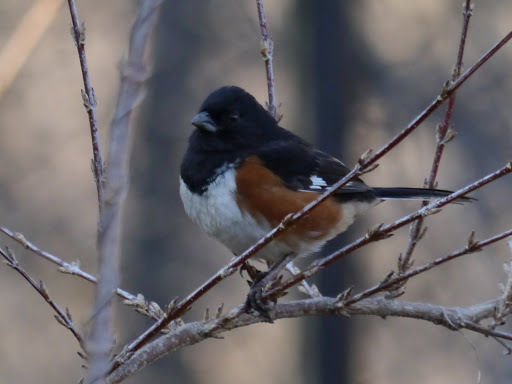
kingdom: Animalia
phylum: Chordata
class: Aves
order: Passeriformes
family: Passerellidae
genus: Pipilo
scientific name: Pipilo erythrophthalmus
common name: Eastern towhee
